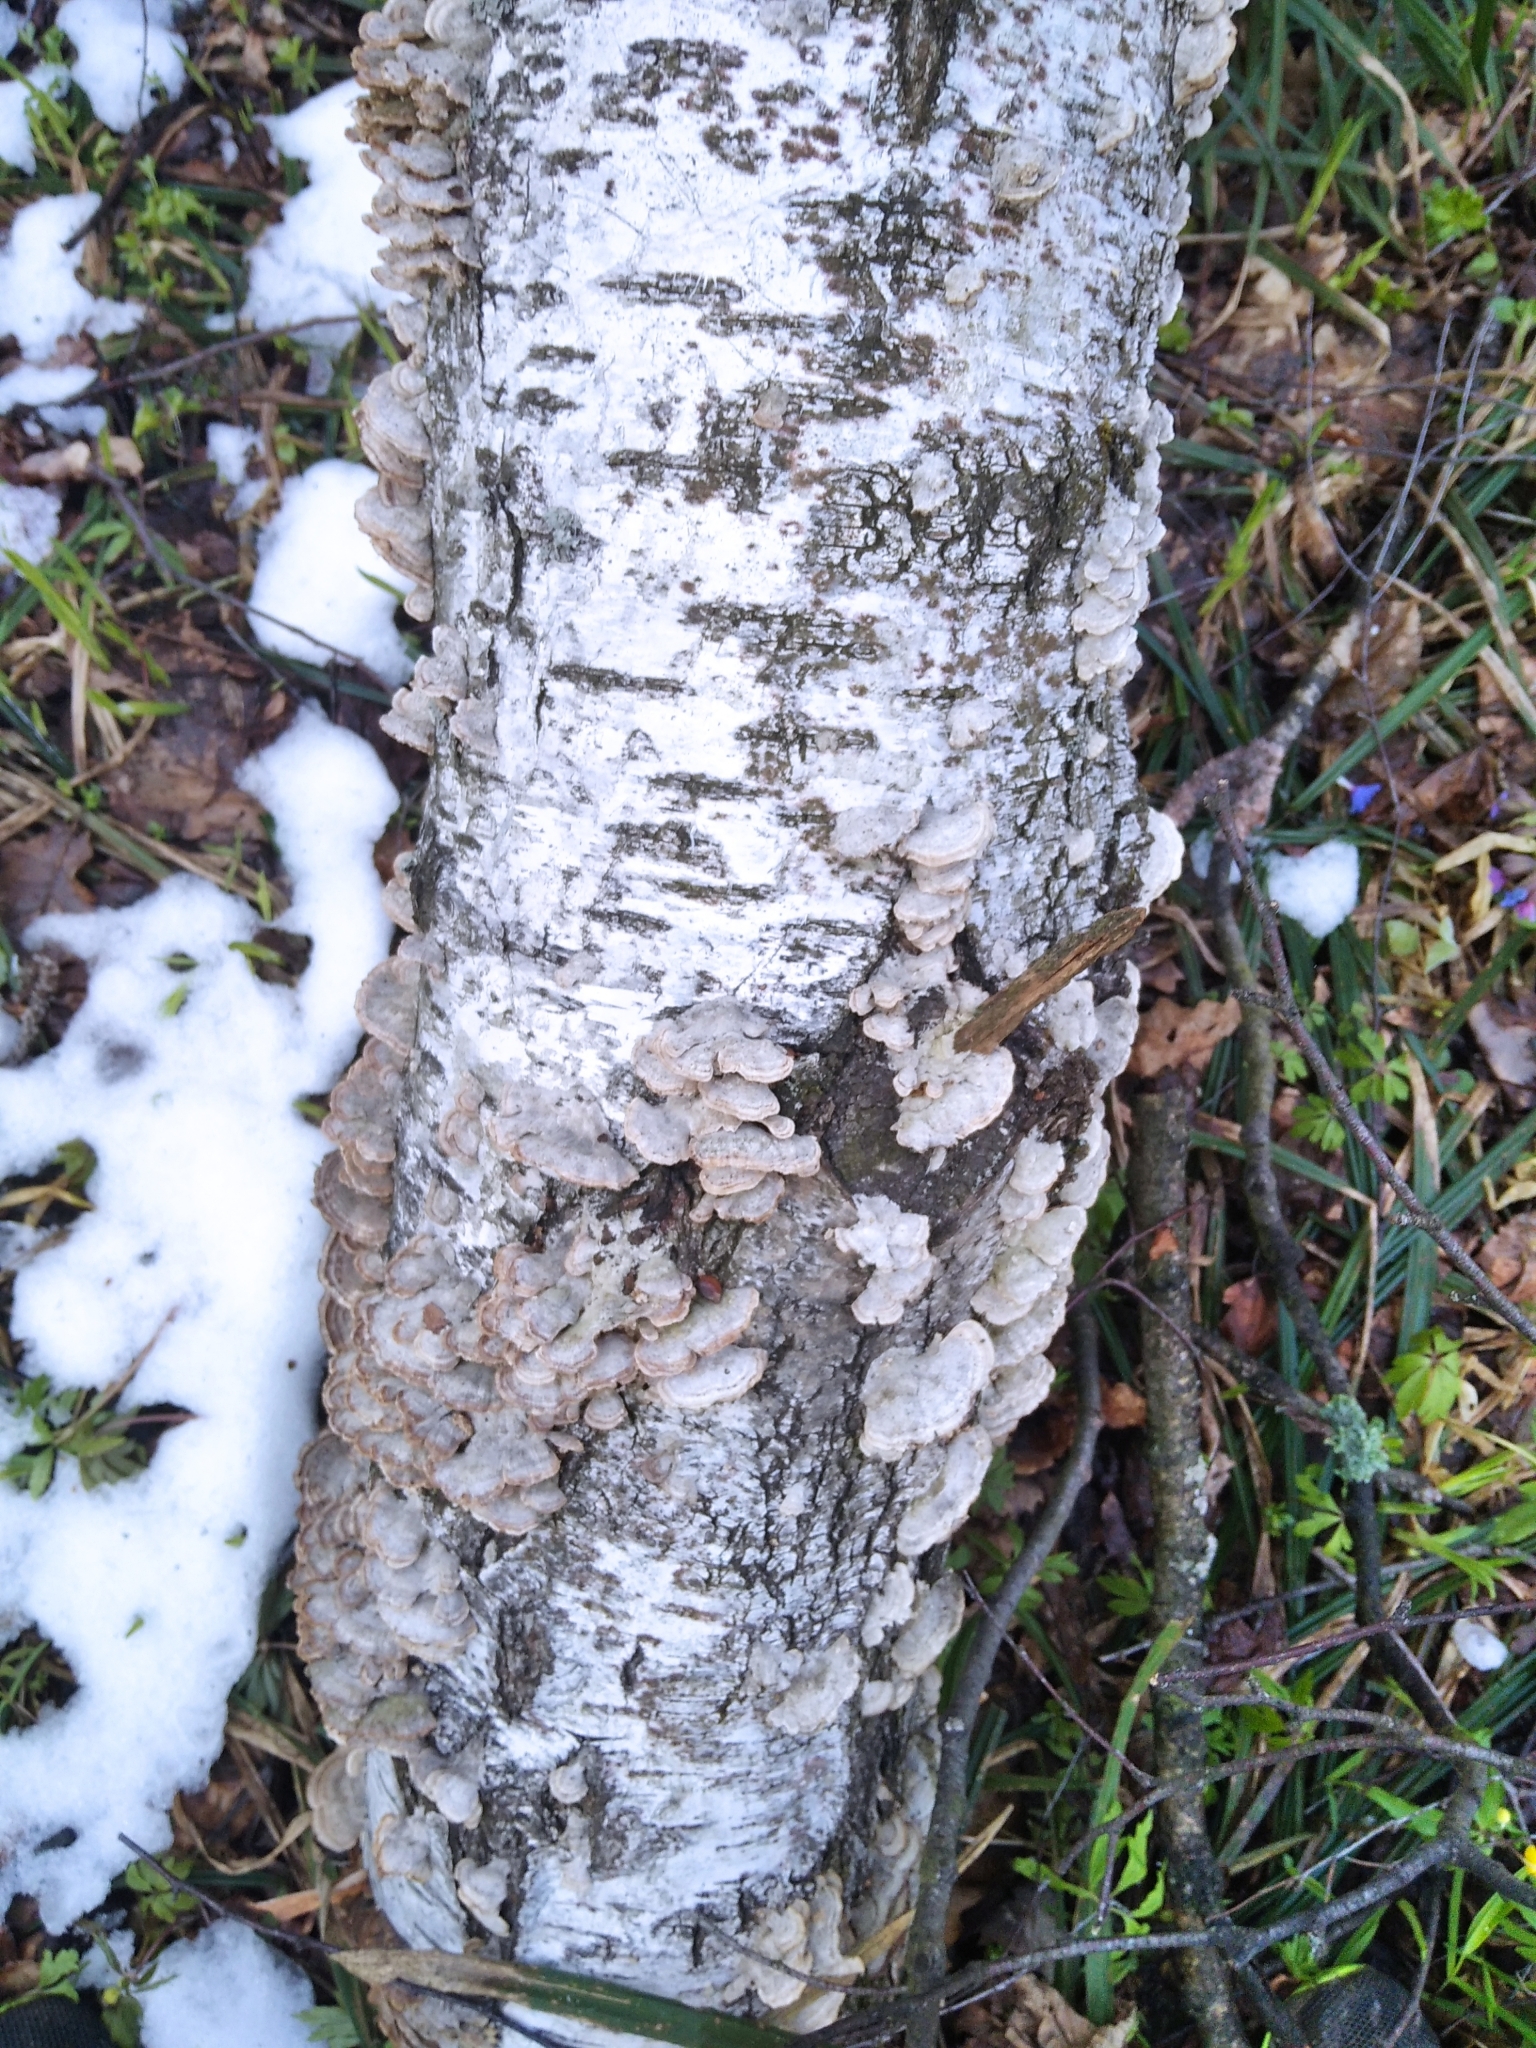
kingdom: Fungi
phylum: Basidiomycota
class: Agaricomycetes
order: Hymenochaetales
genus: Trichaptum
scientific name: Trichaptum biforme
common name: Violet-toothed polypore
